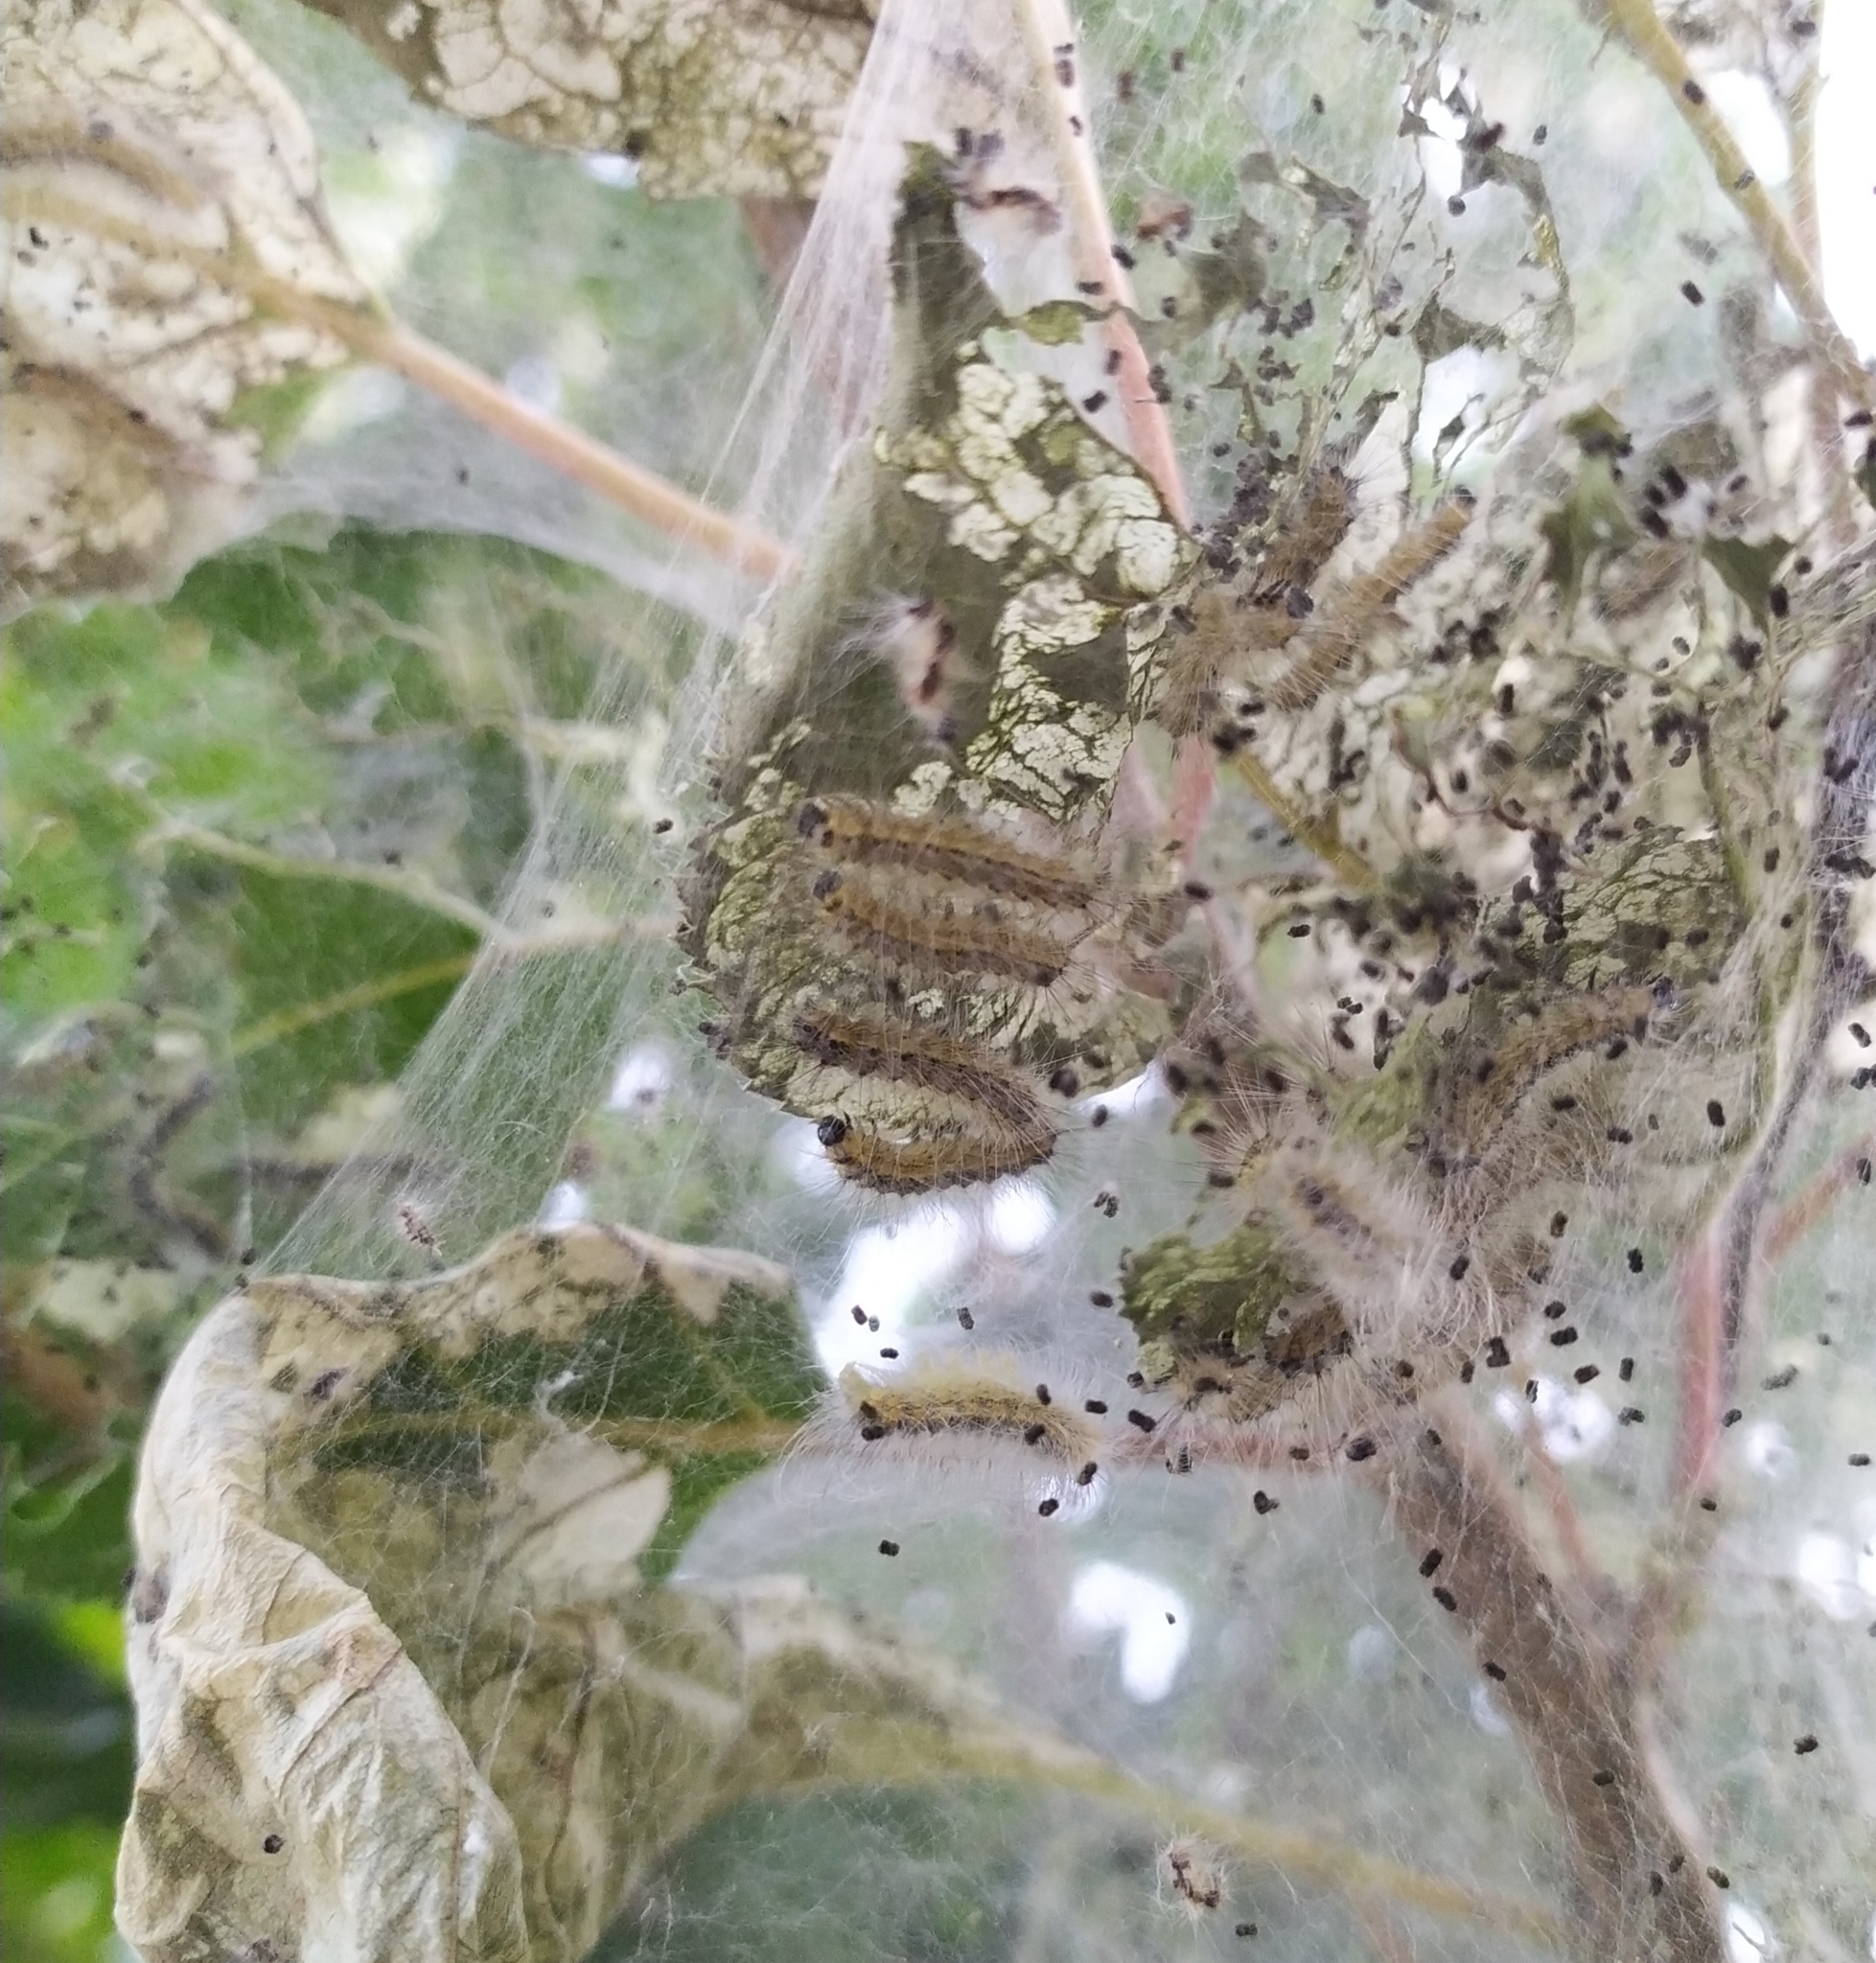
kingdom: Animalia
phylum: Arthropoda
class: Insecta
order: Lepidoptera
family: Erebidae
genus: Hyphantria
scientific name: Hyphantria cunea
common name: American white moth
